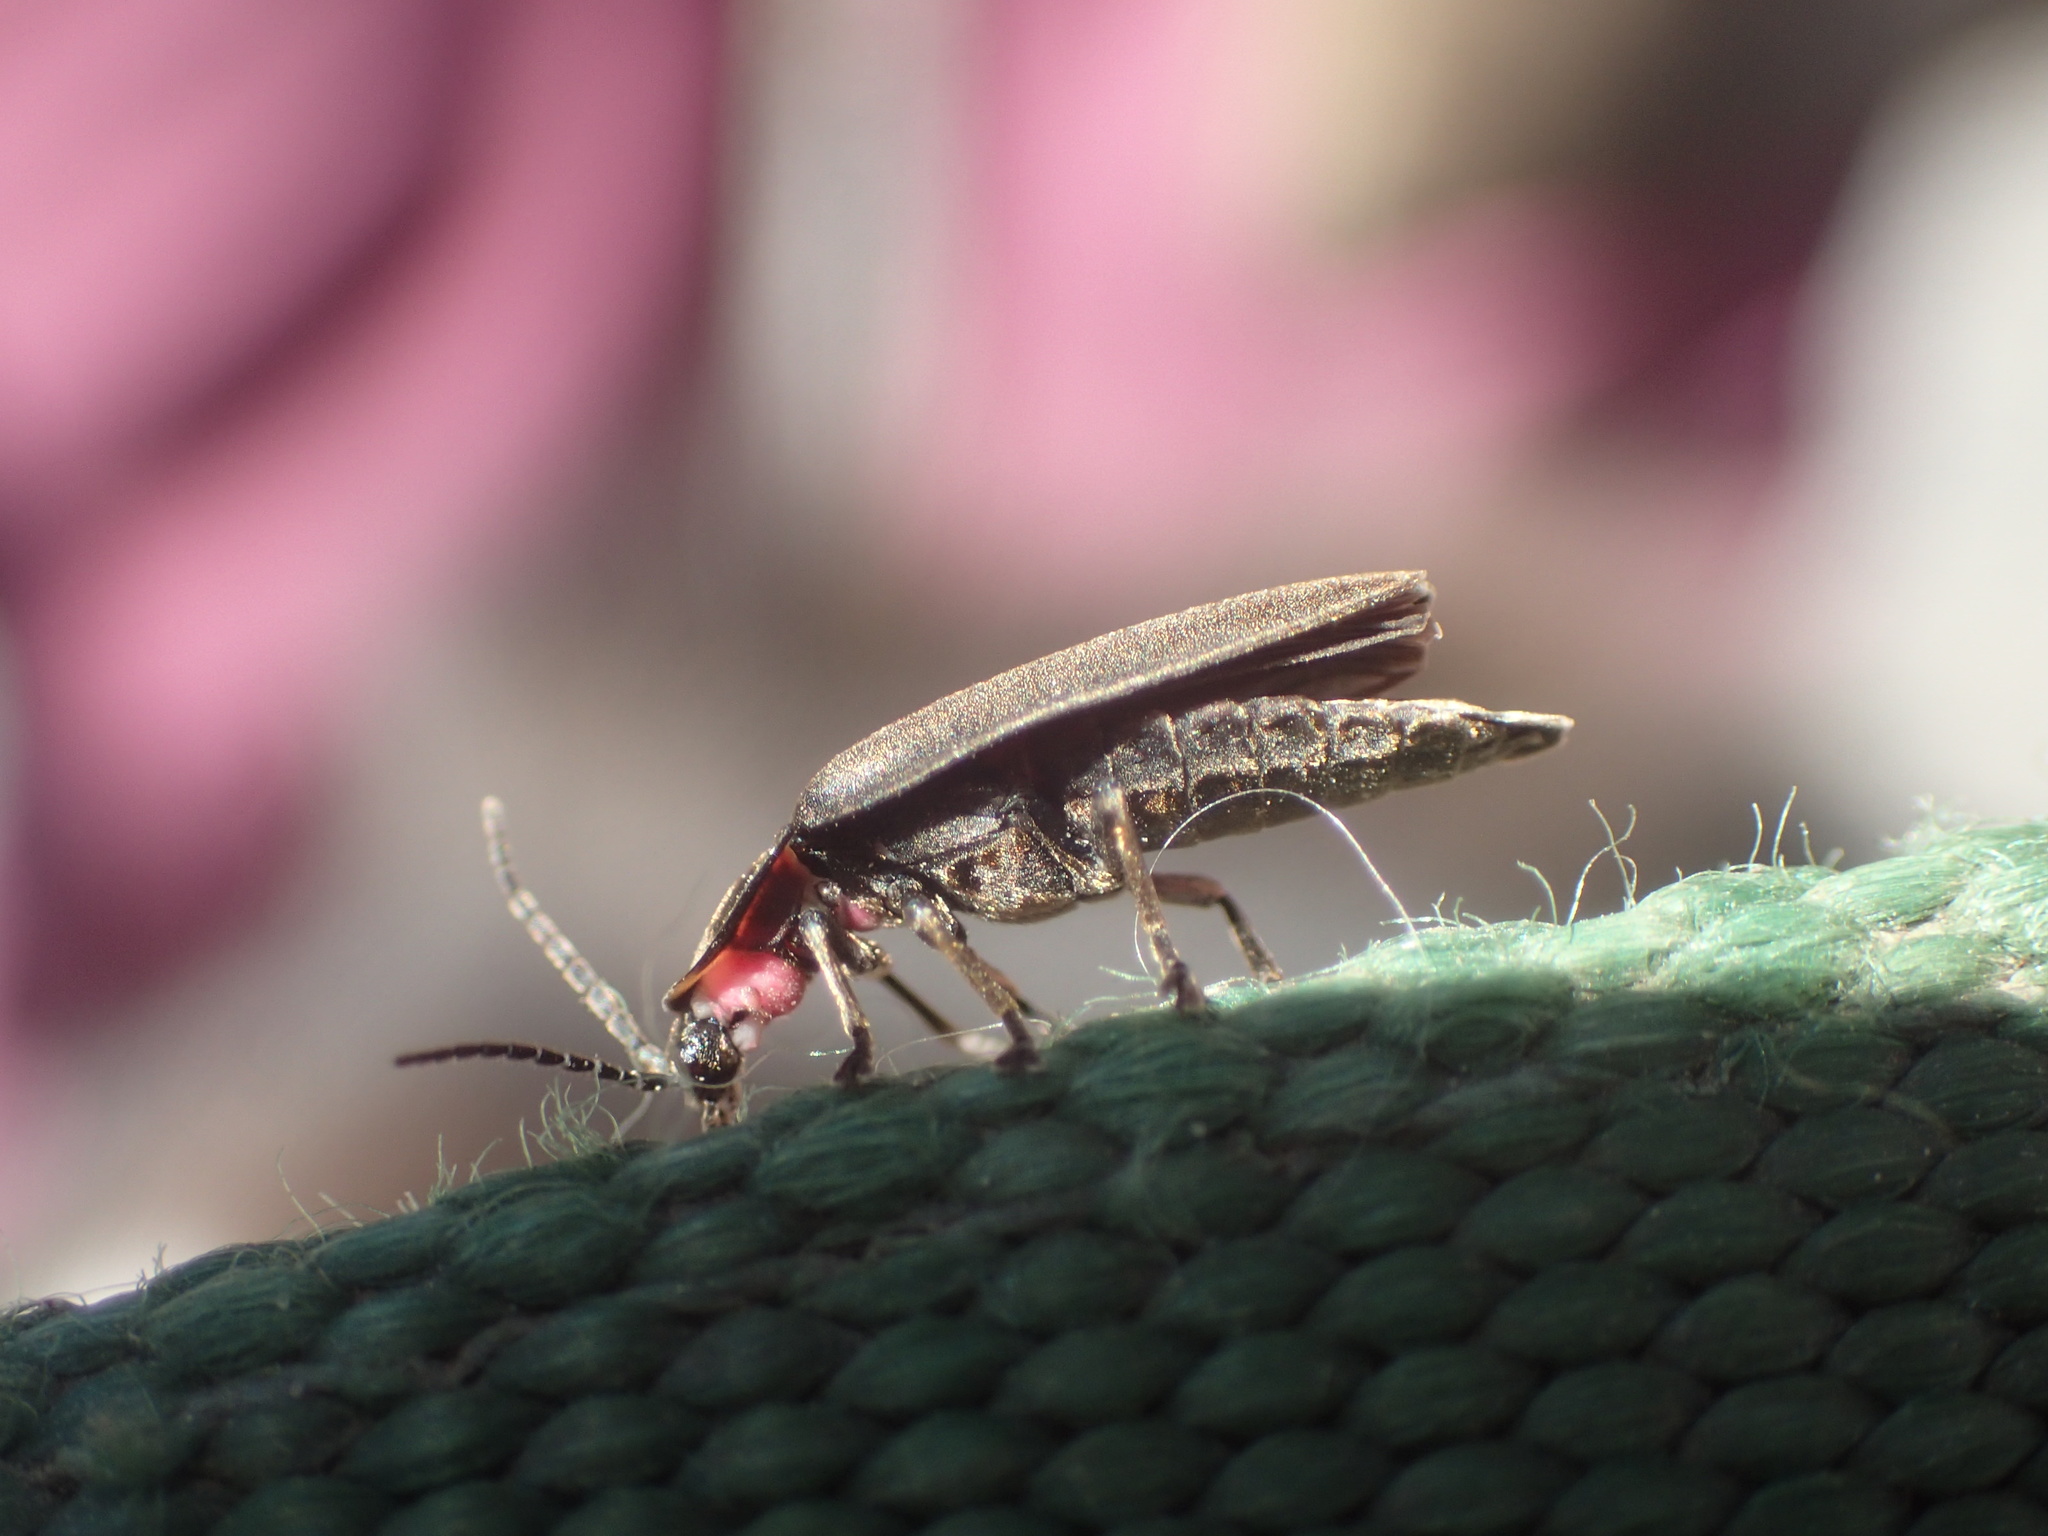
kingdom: Animalia
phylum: Arthropoda
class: Insecta
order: Coleoptera
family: Lampyridae
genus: Photinus
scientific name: Photinus corrusca
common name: Winter firefly
